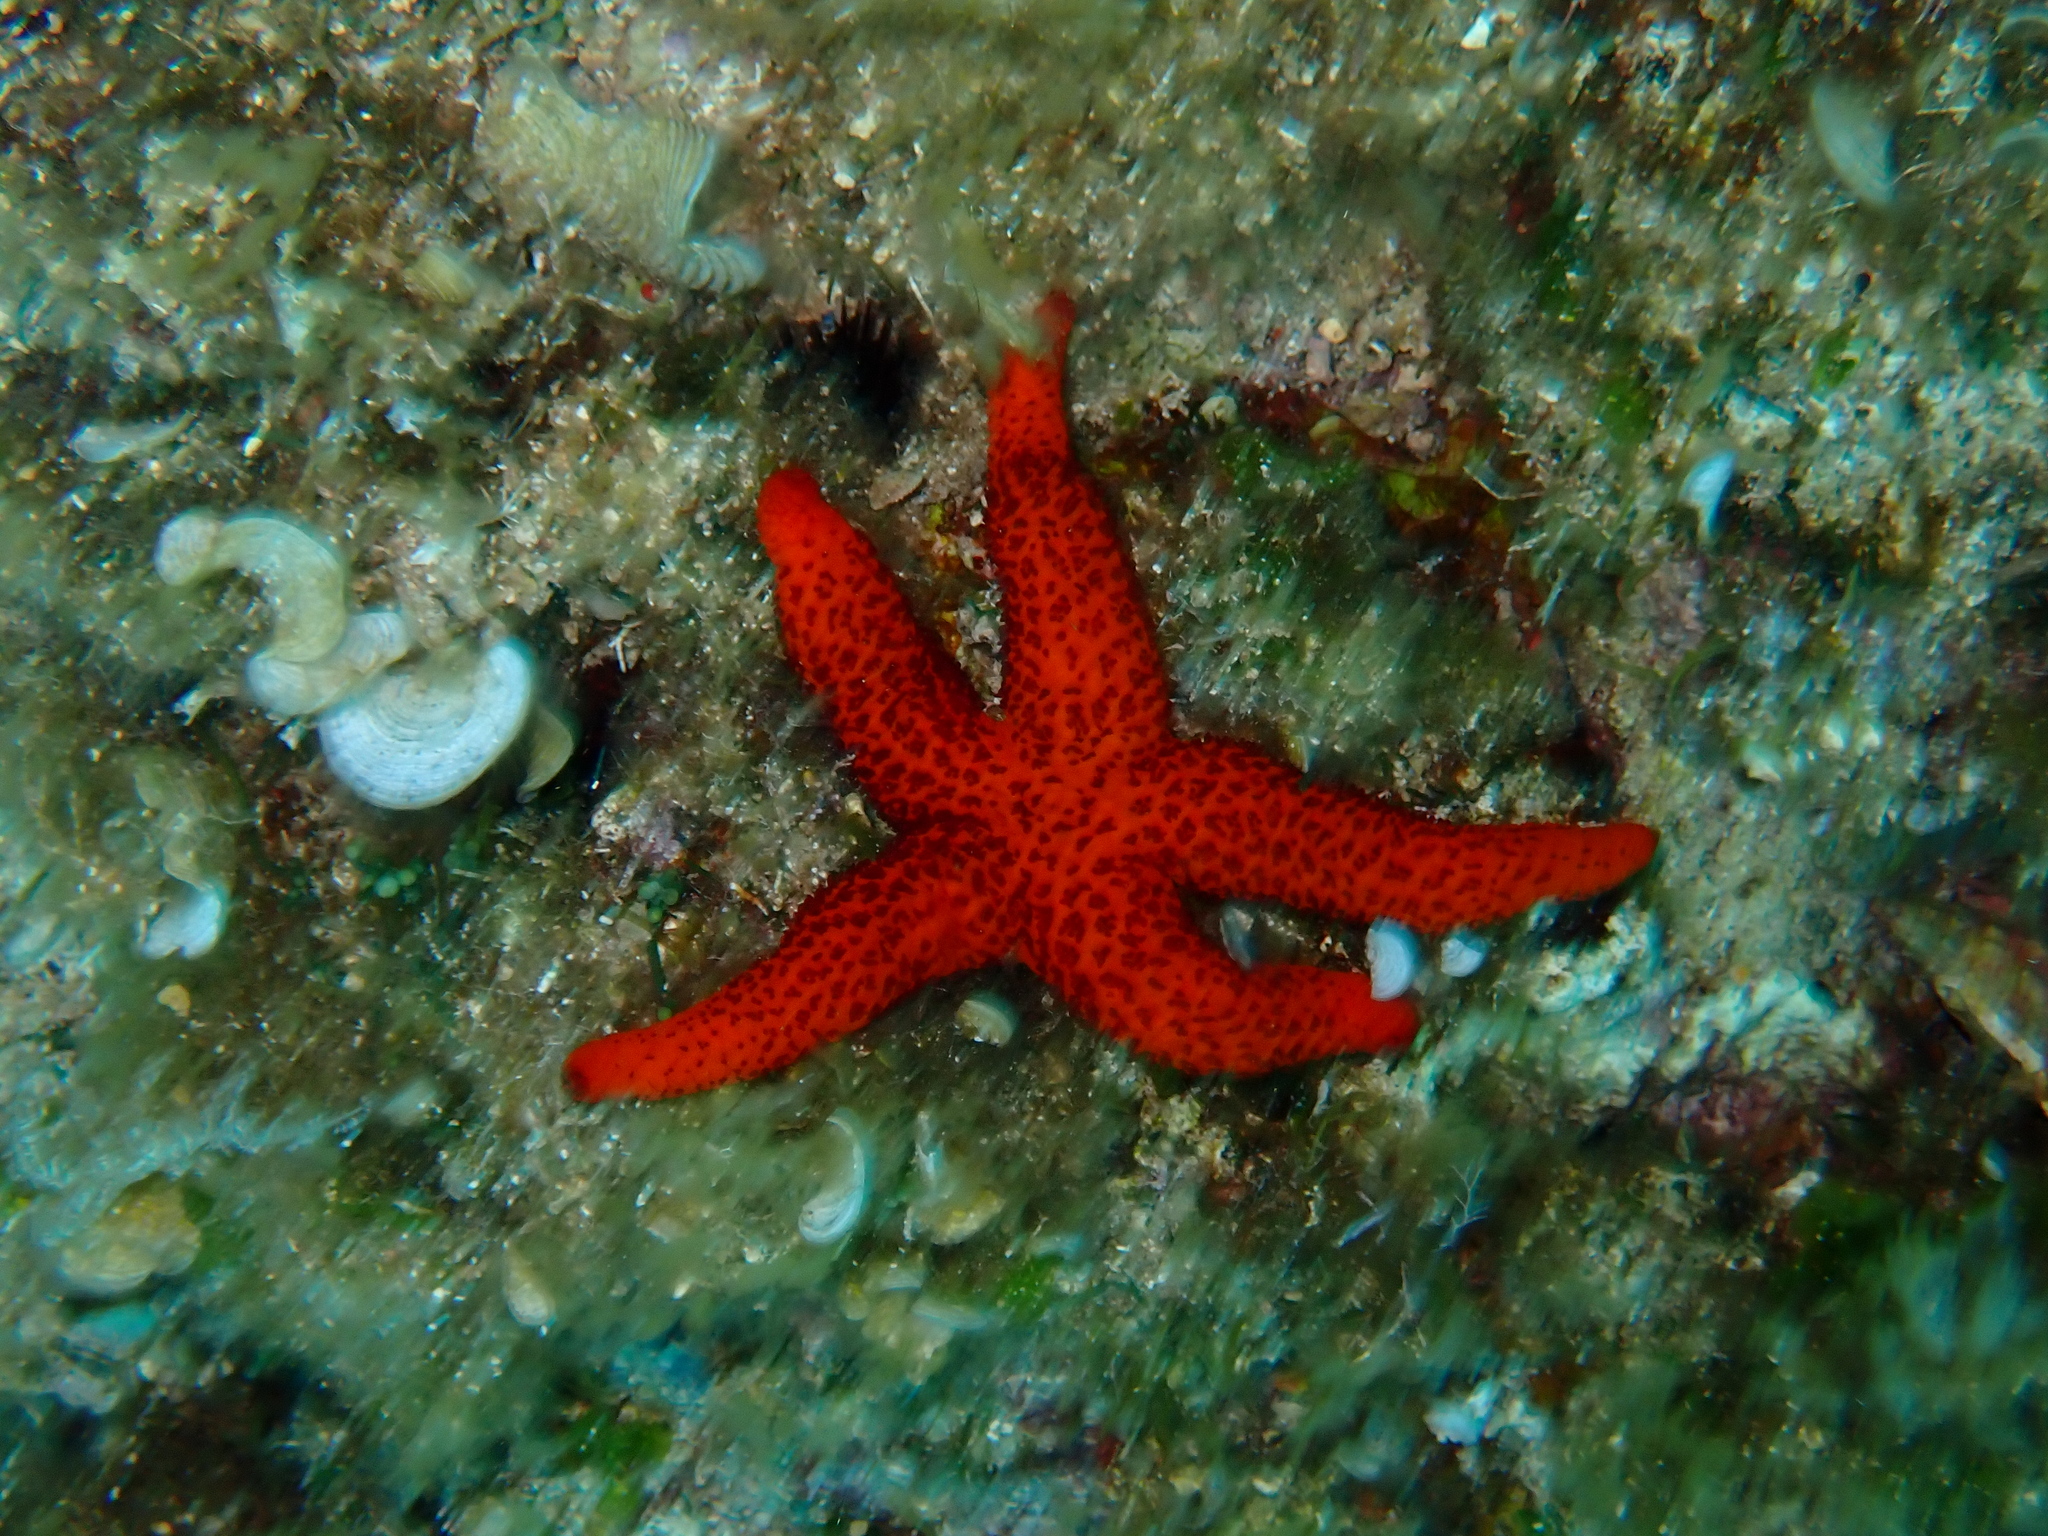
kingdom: Animalia
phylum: Echinodermata
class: Asteroidea
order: Spinulosida
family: Echinasteridae
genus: Echinaster
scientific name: Echinaster sepositus
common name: Red starfish
